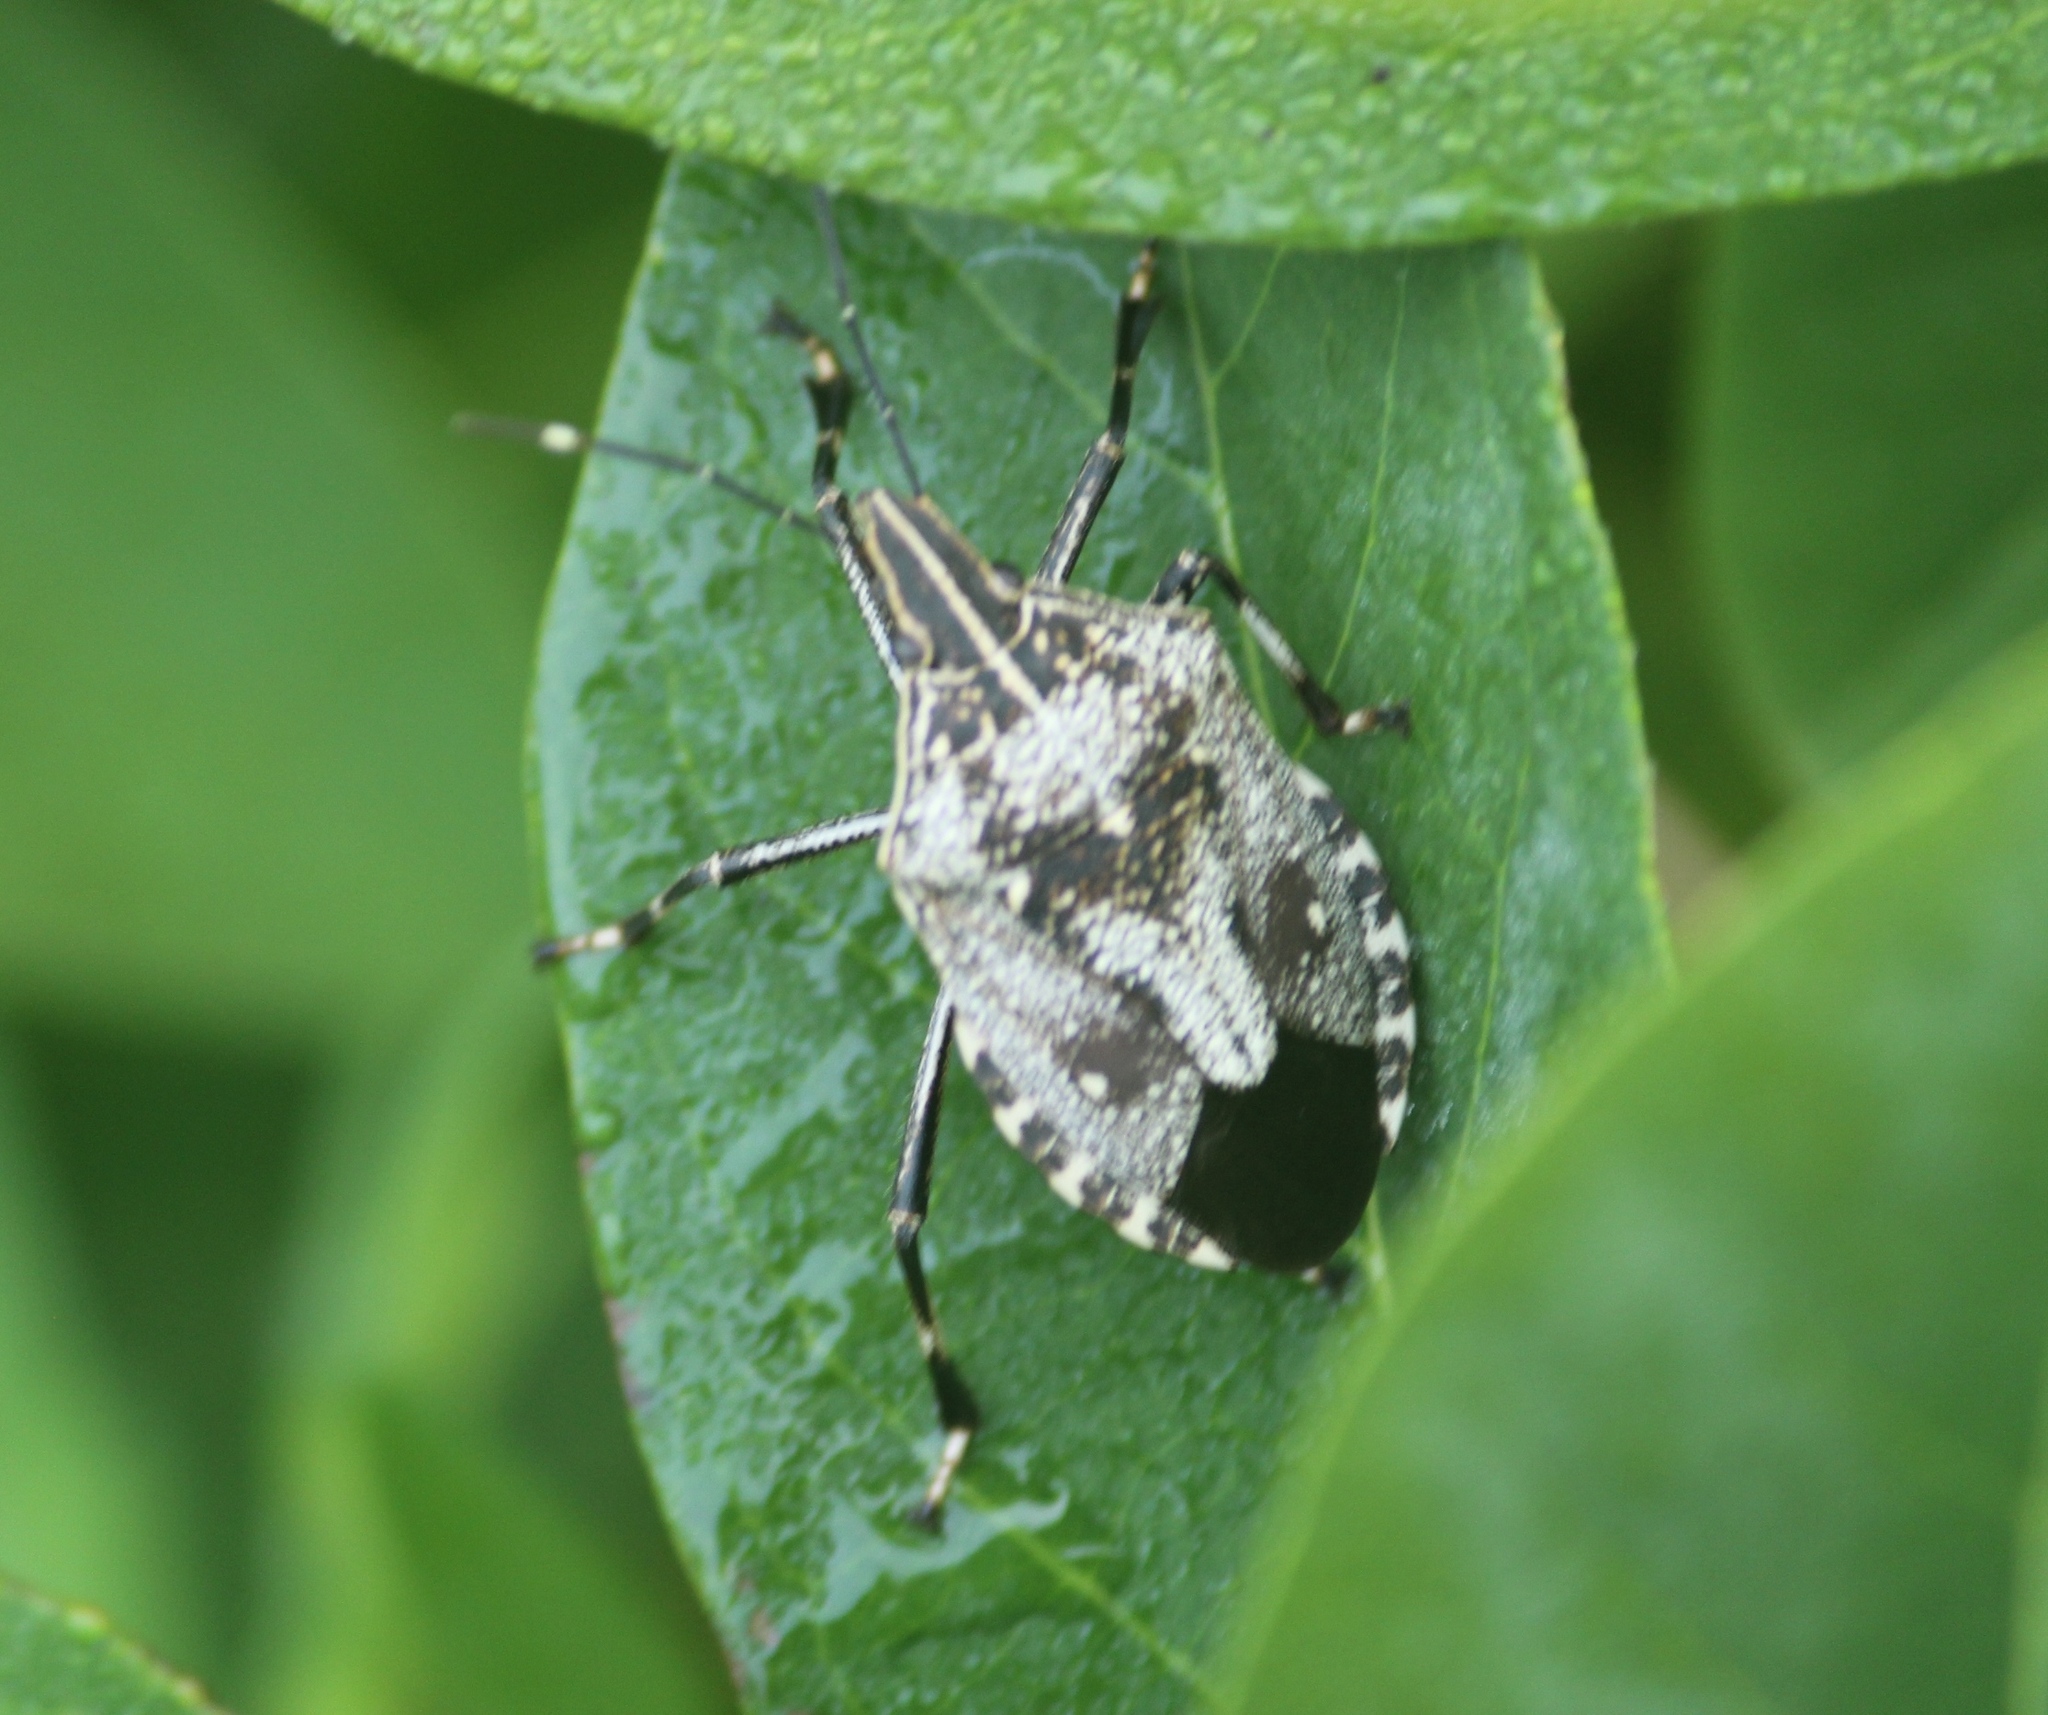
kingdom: Animalia
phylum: Arthropoda
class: Insecta
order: Hemiptera
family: Pentatomidae
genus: Erthesina
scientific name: Erthesina acuminata
